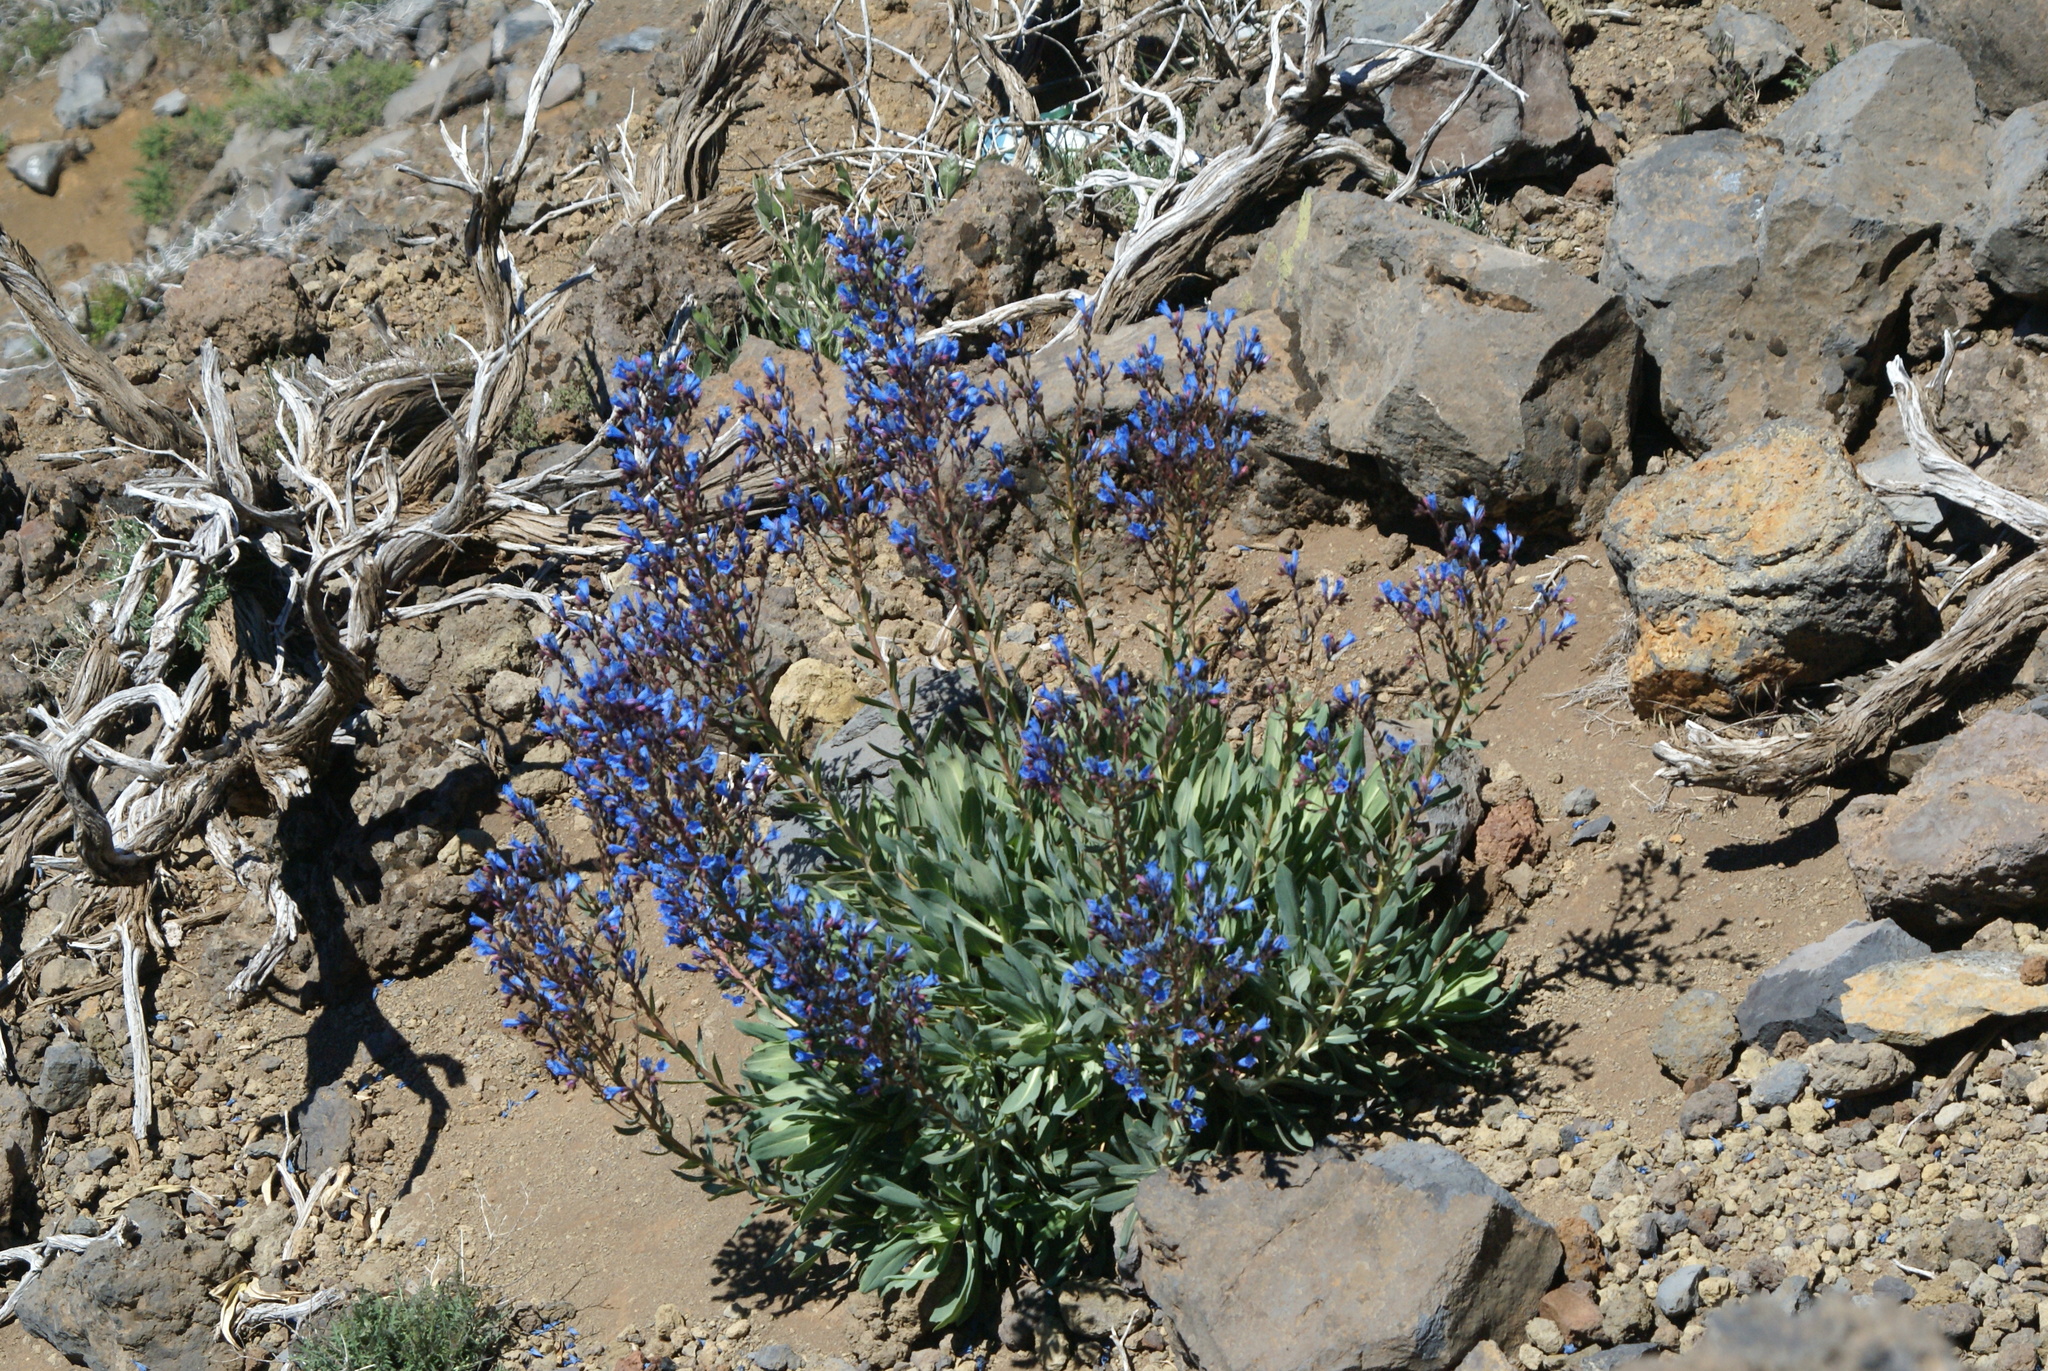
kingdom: Plantae
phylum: Tracheophyta
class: Magnoliopsida
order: Boraginales
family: Boraginaceae
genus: Echium
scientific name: Echium thyrsiflorum
